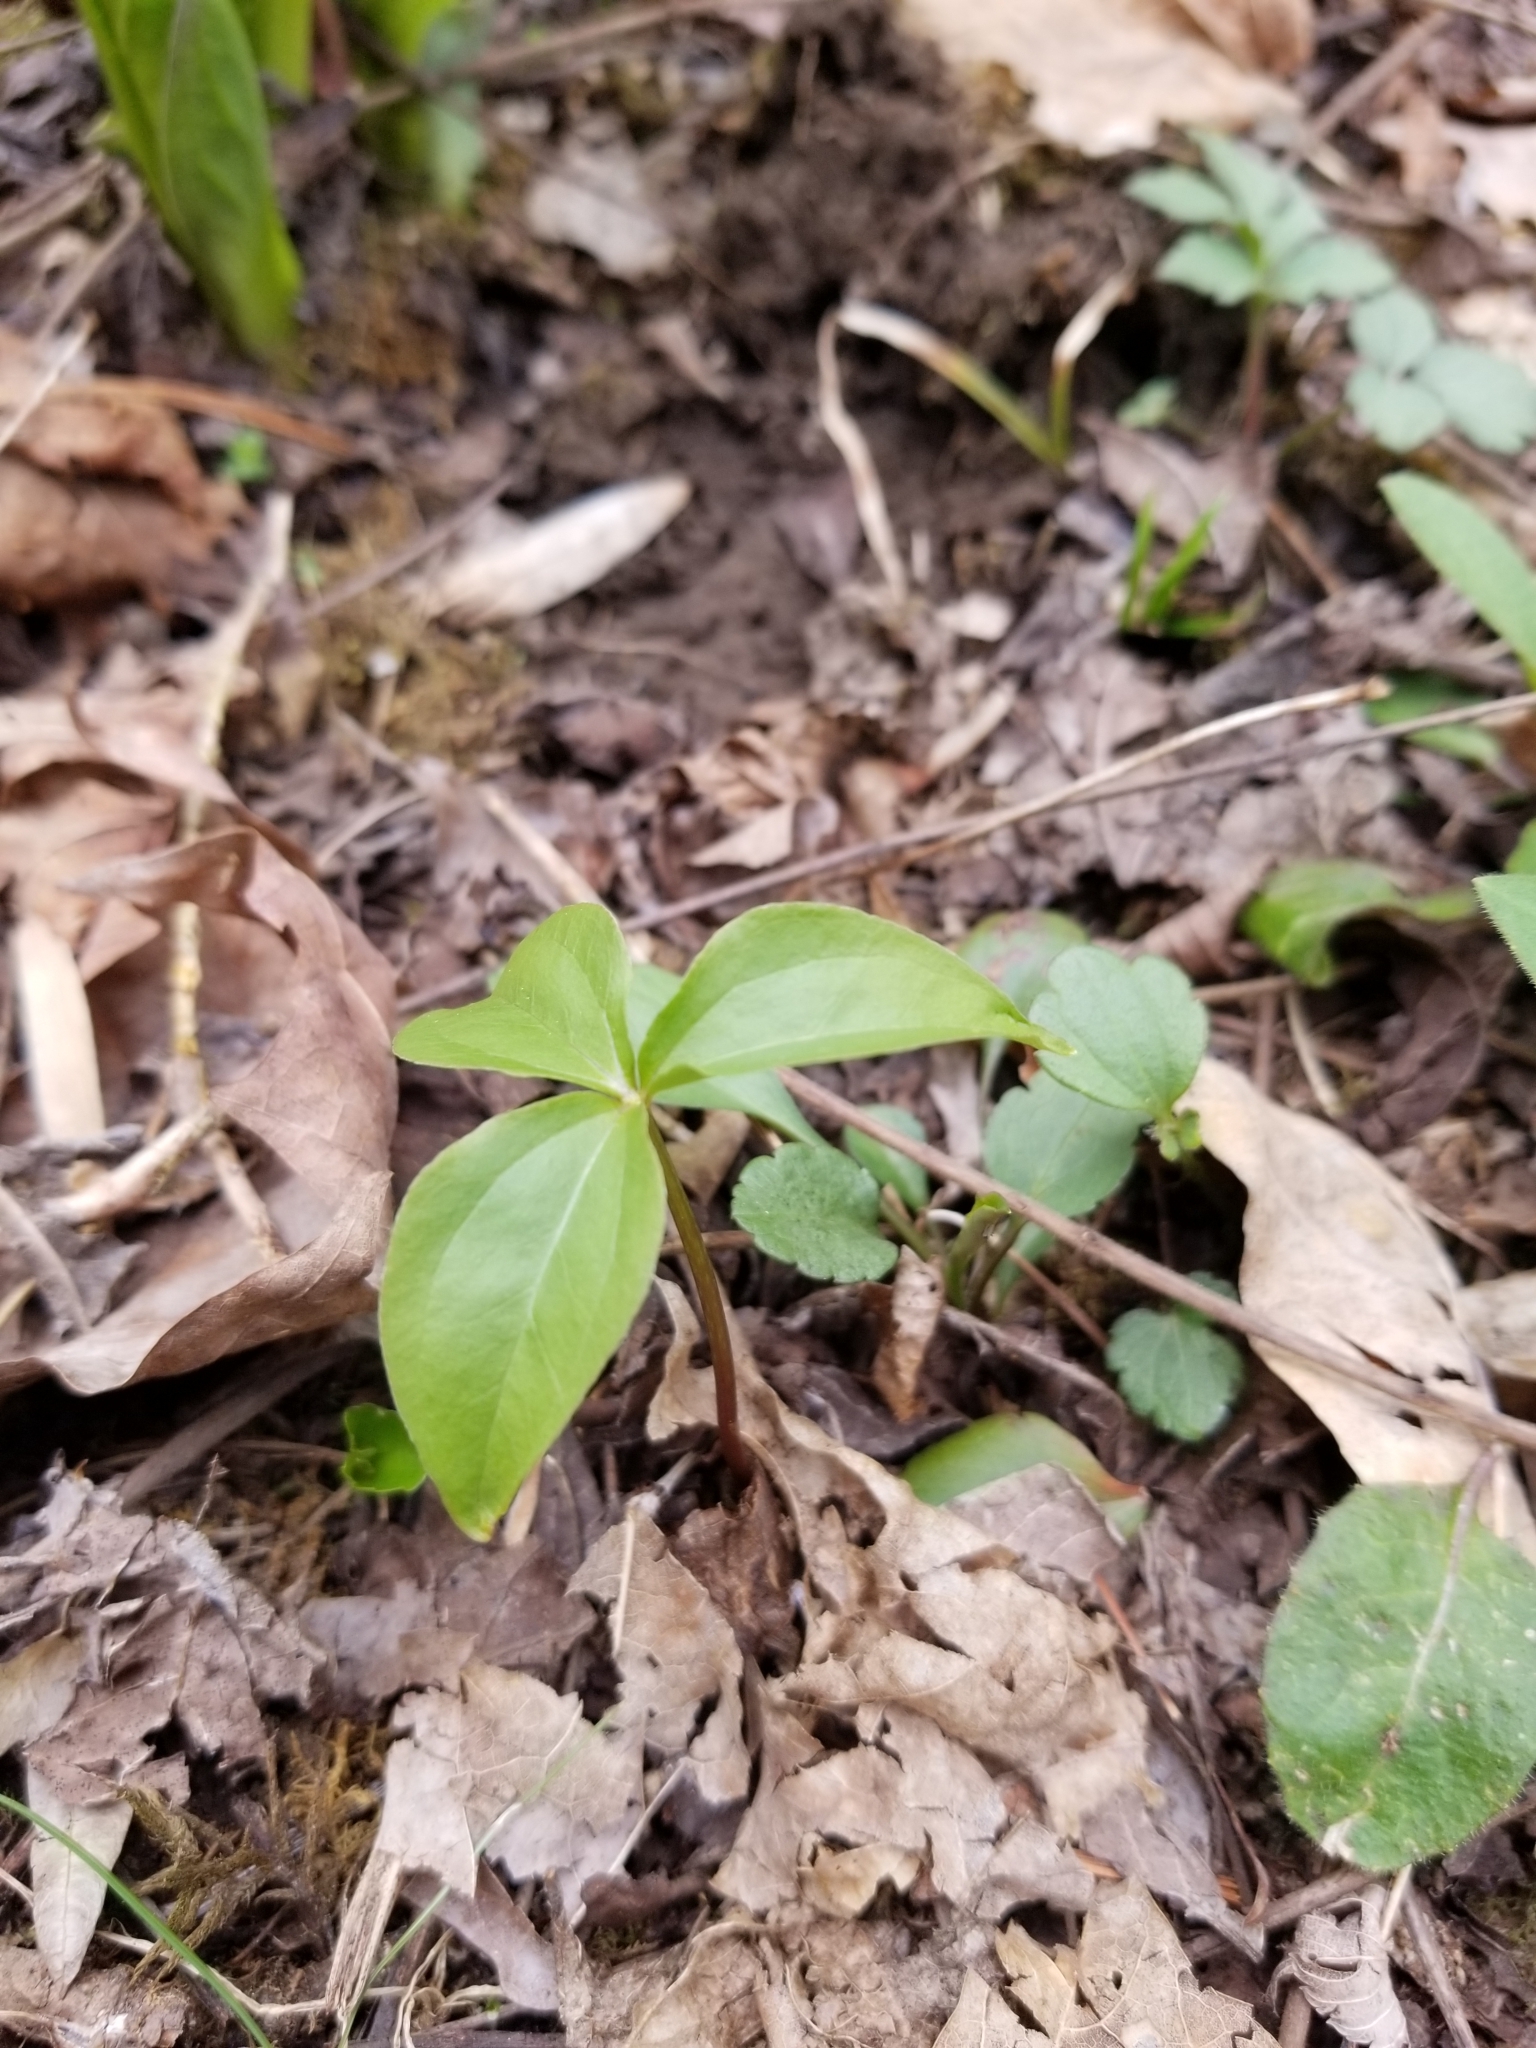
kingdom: Plantae
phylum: Tracheophyta
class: Liliopsida
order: Liliales
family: Melanthiaceae
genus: Trillium
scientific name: Trillium erectum
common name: Purple trillium
